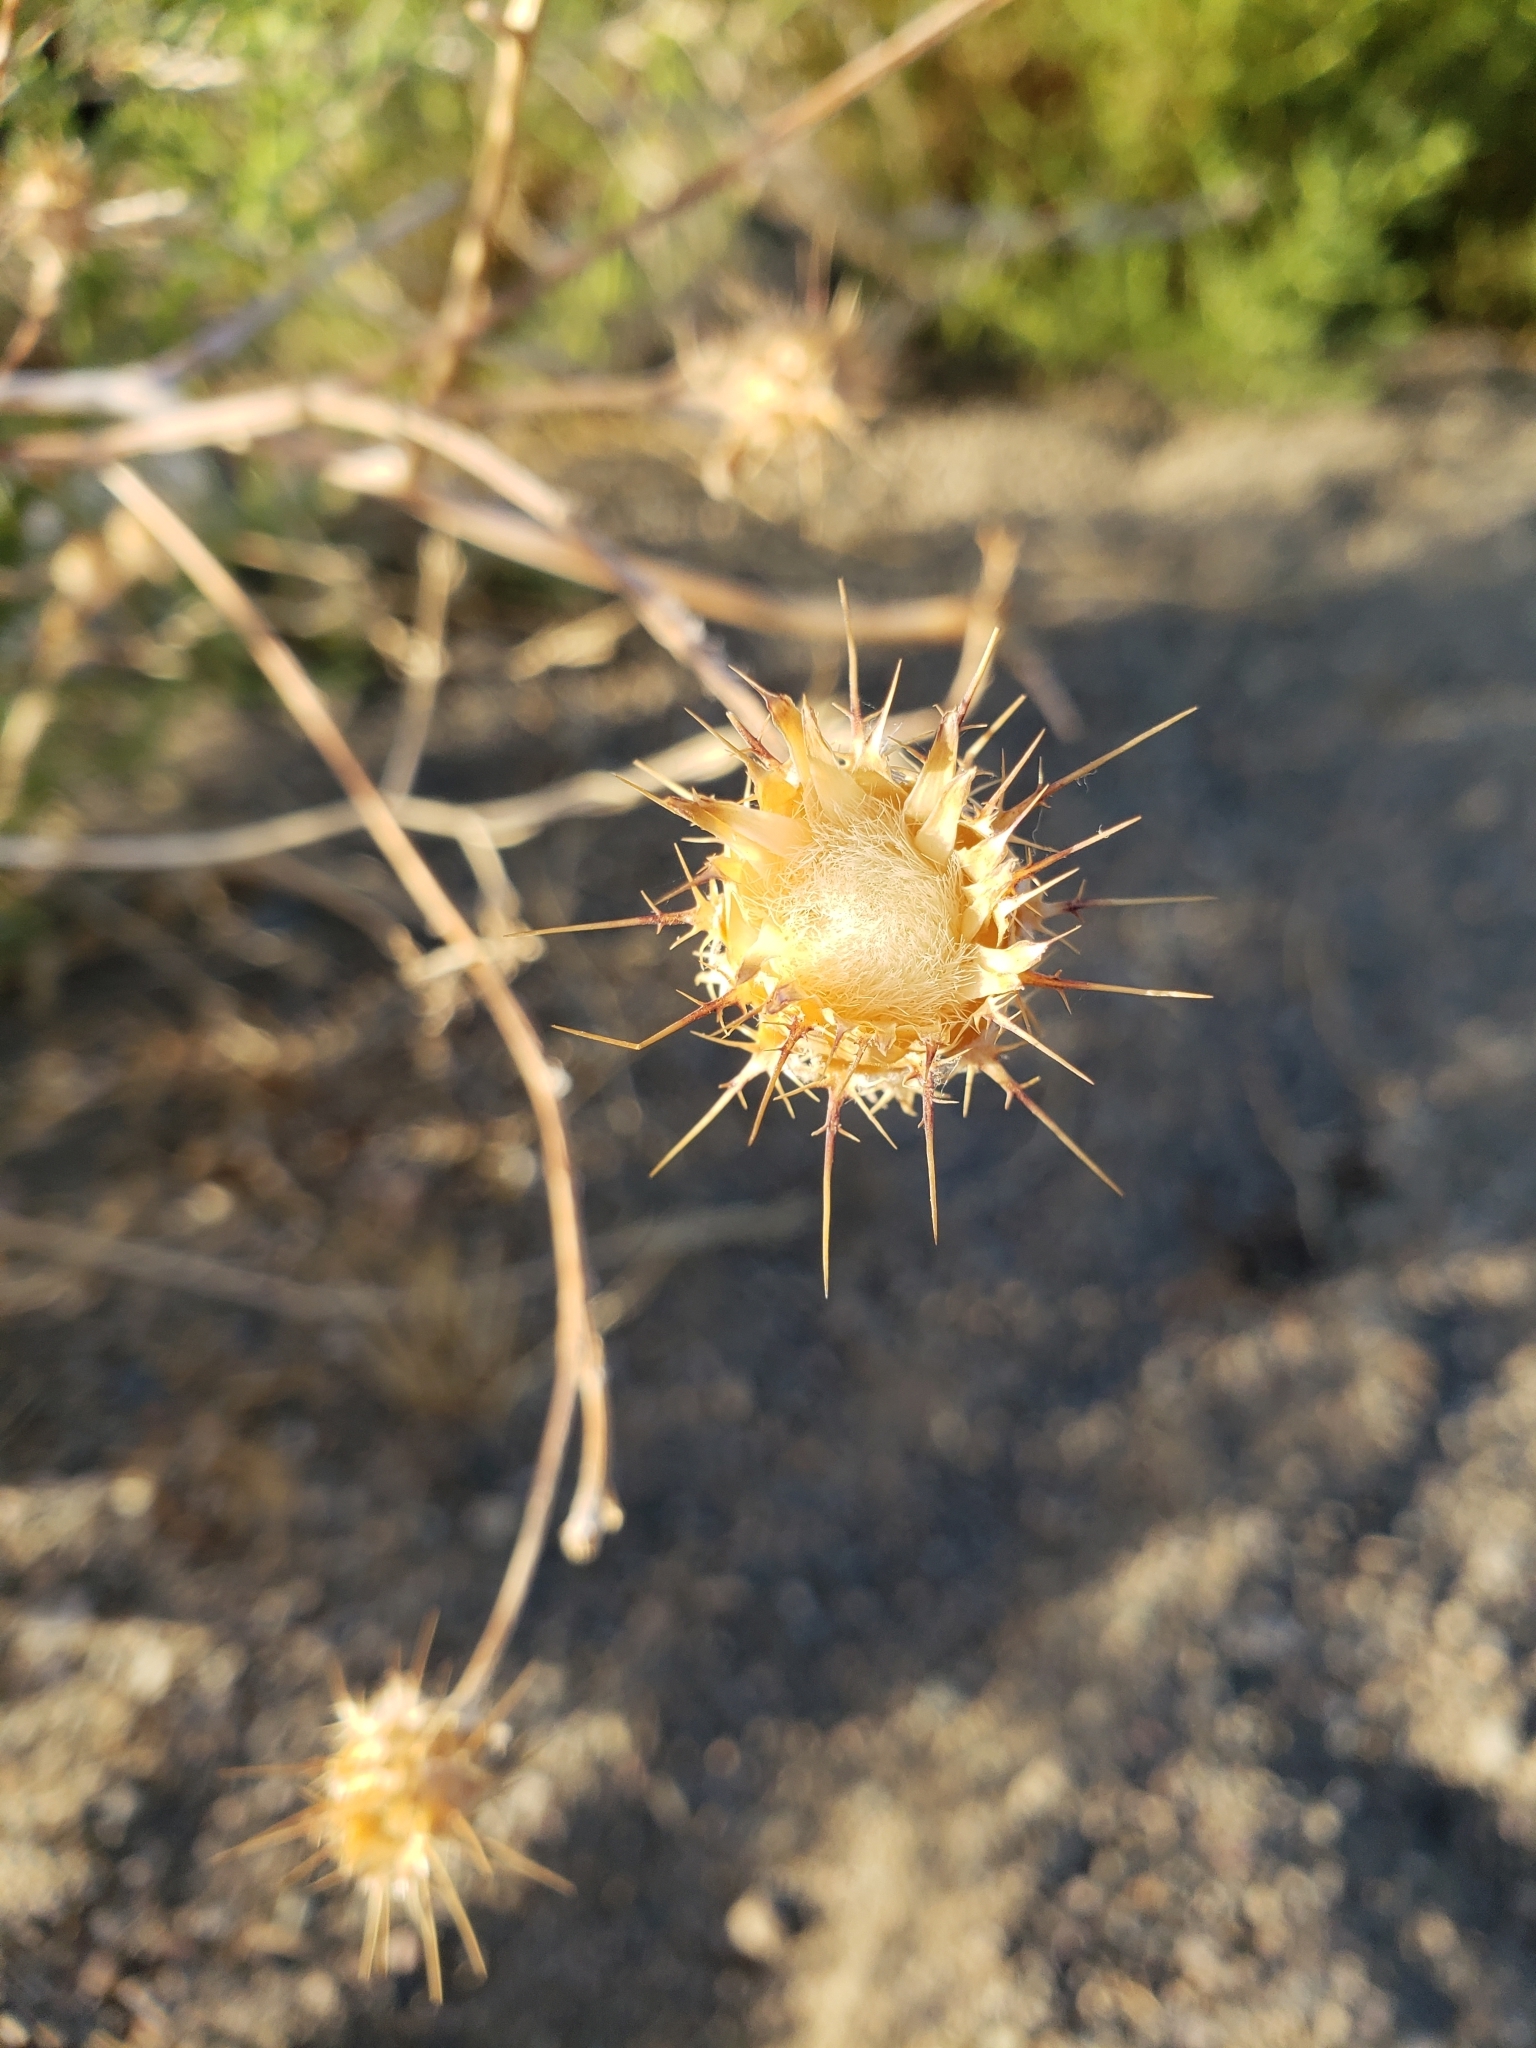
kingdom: Plantae
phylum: Tracheophyta
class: Magnoliopsida
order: Asterales
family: Asteraceae
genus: Centaurea
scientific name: Centaurea melitensis
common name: Maltese star-thistle
